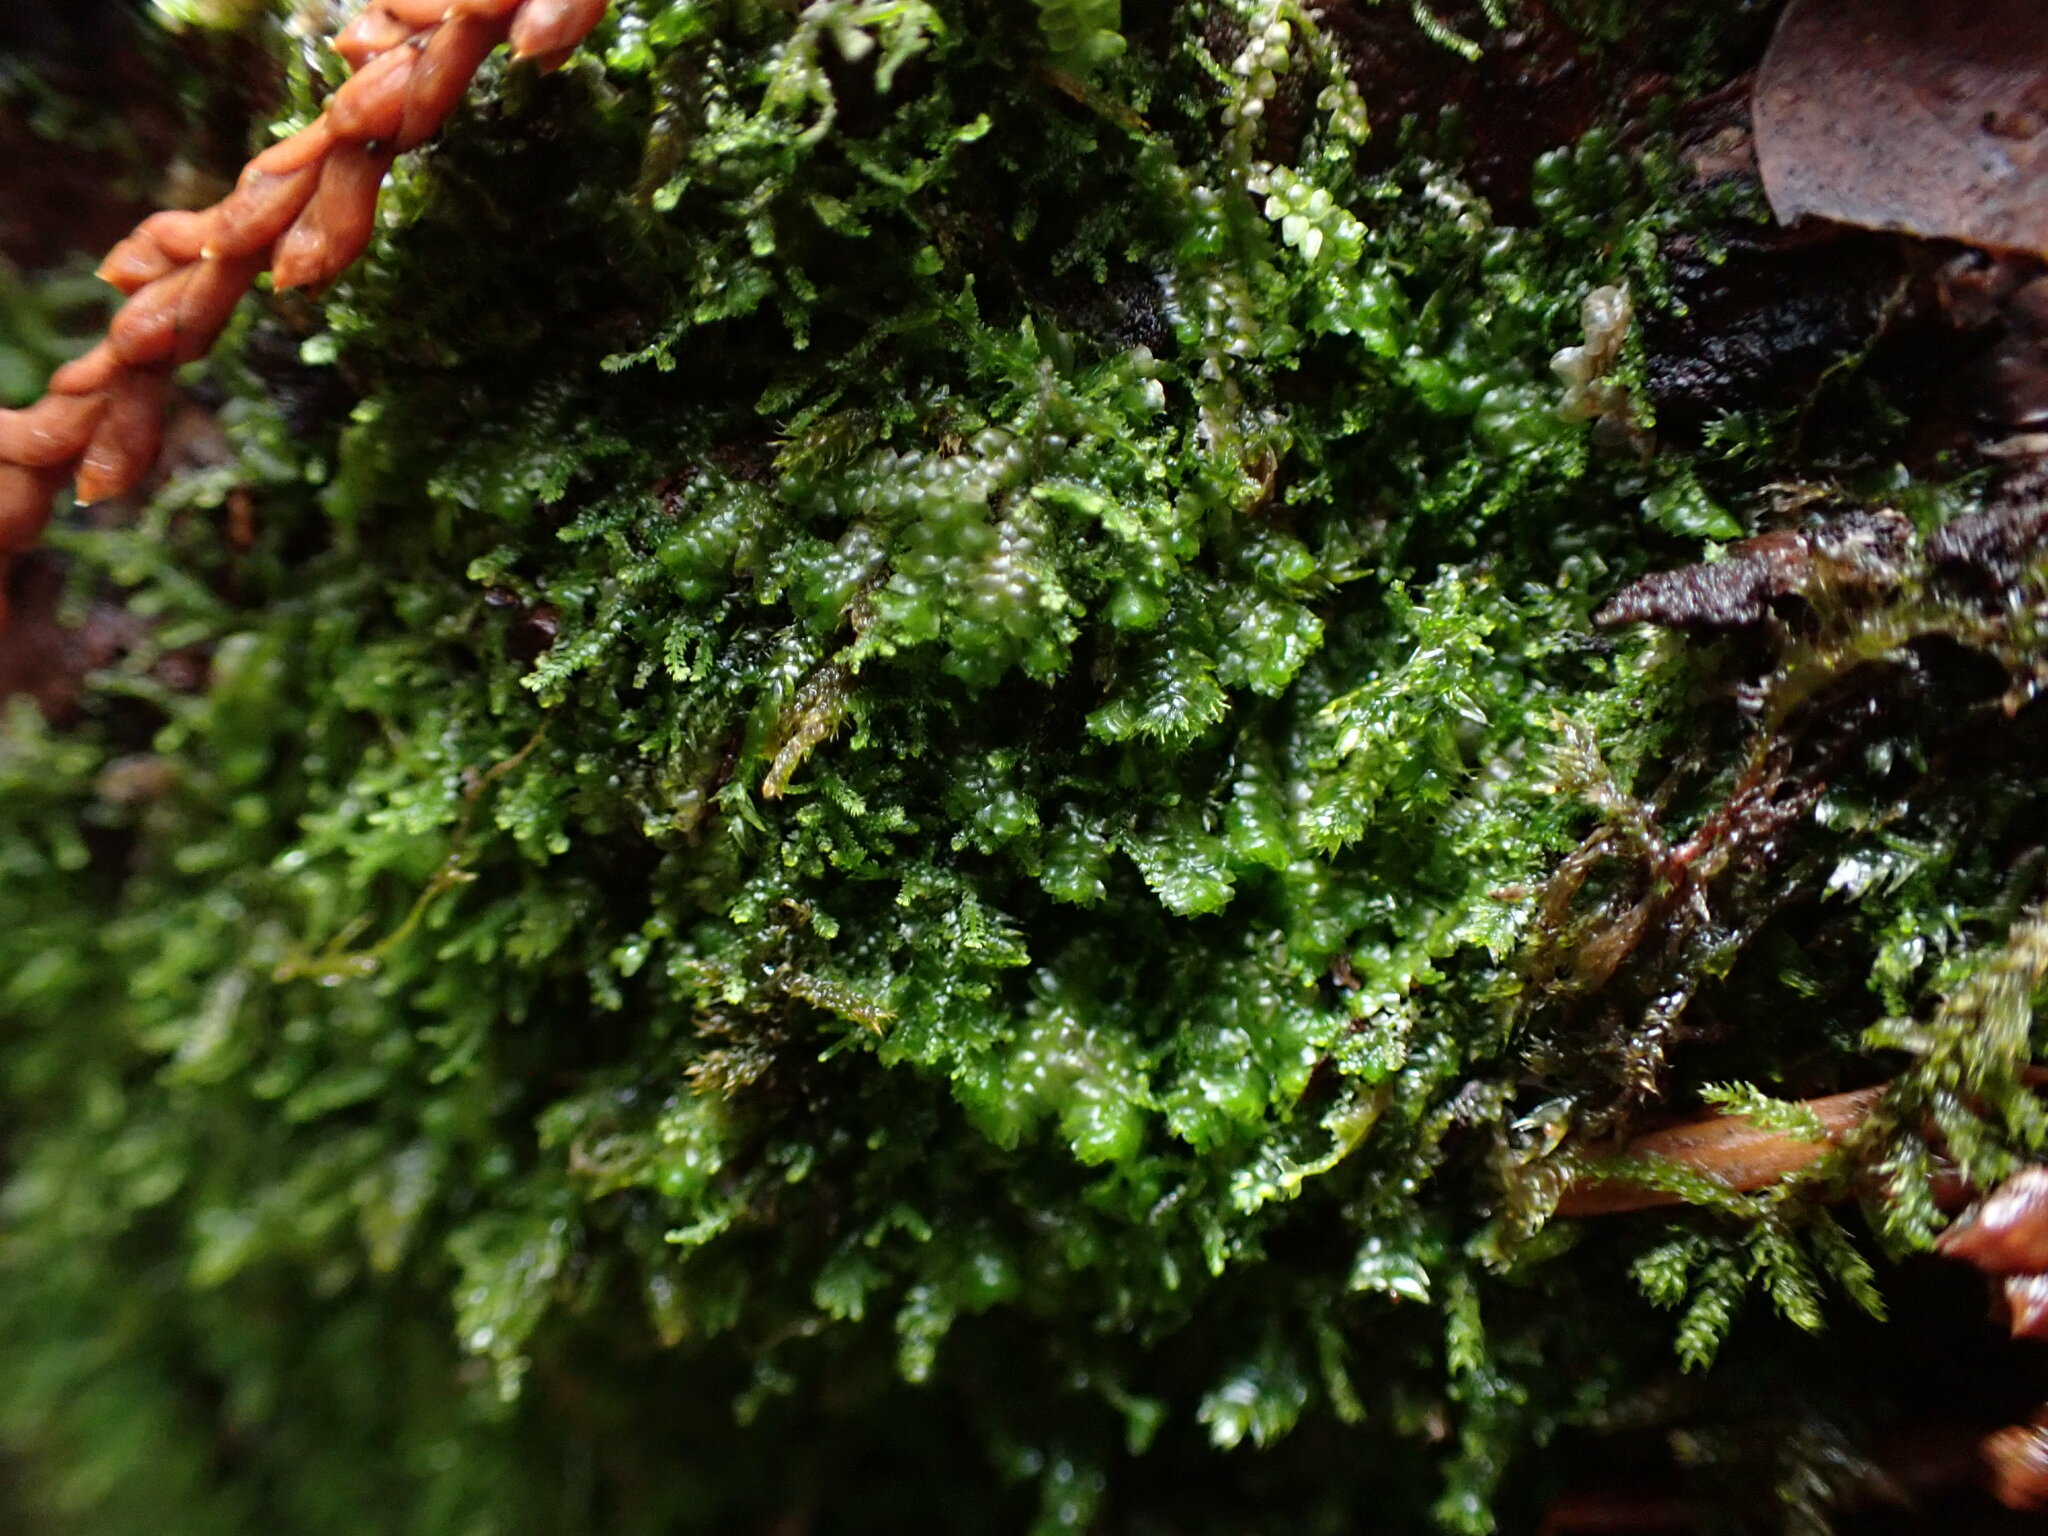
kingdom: Plantae
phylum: Bryophyta
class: Bryopsida
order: Hypnales
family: Plagiotheciaceae
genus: Pseudotaxiphyllum
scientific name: Pseudotaxiphyllum elegans
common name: Elegant silk moss
